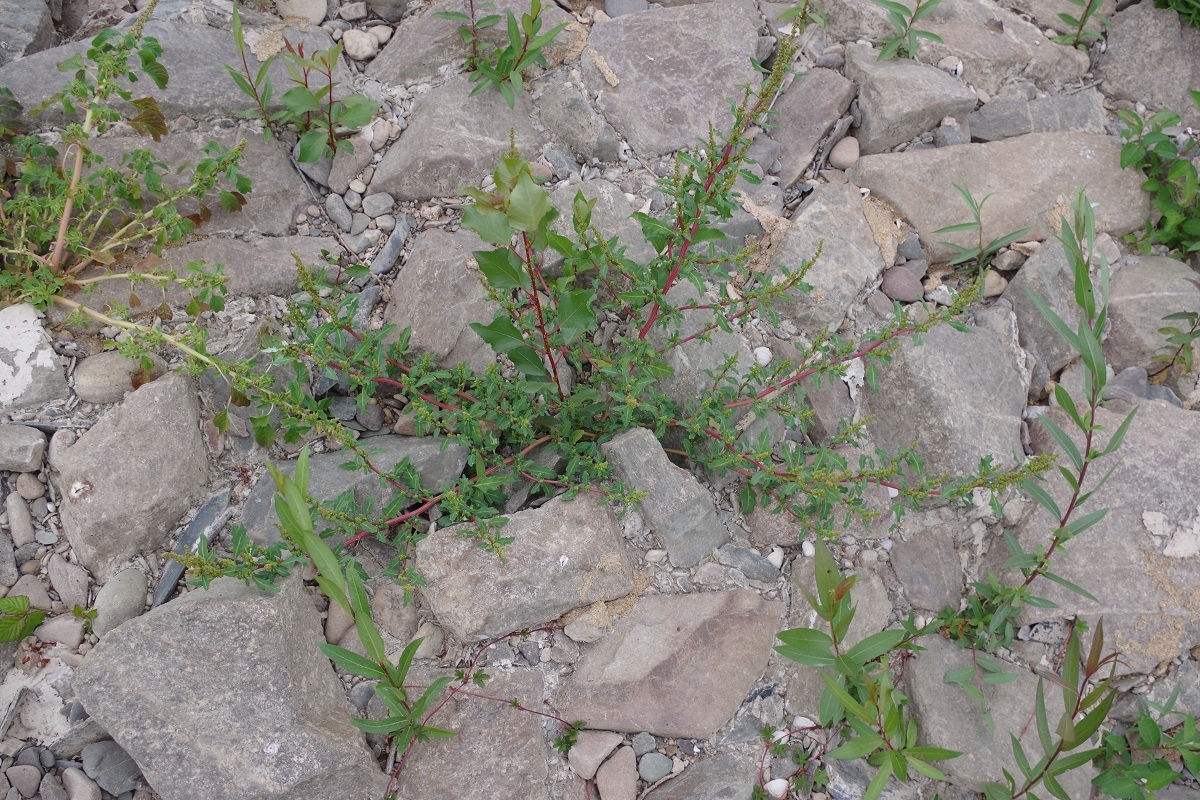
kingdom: Plantae
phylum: Tracheophyta
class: Magnoliopsida
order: Caryophyllales
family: Amaranthaceae
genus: Oxybasis
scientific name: Oxybasis glauca
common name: Glaucous goosefoot
